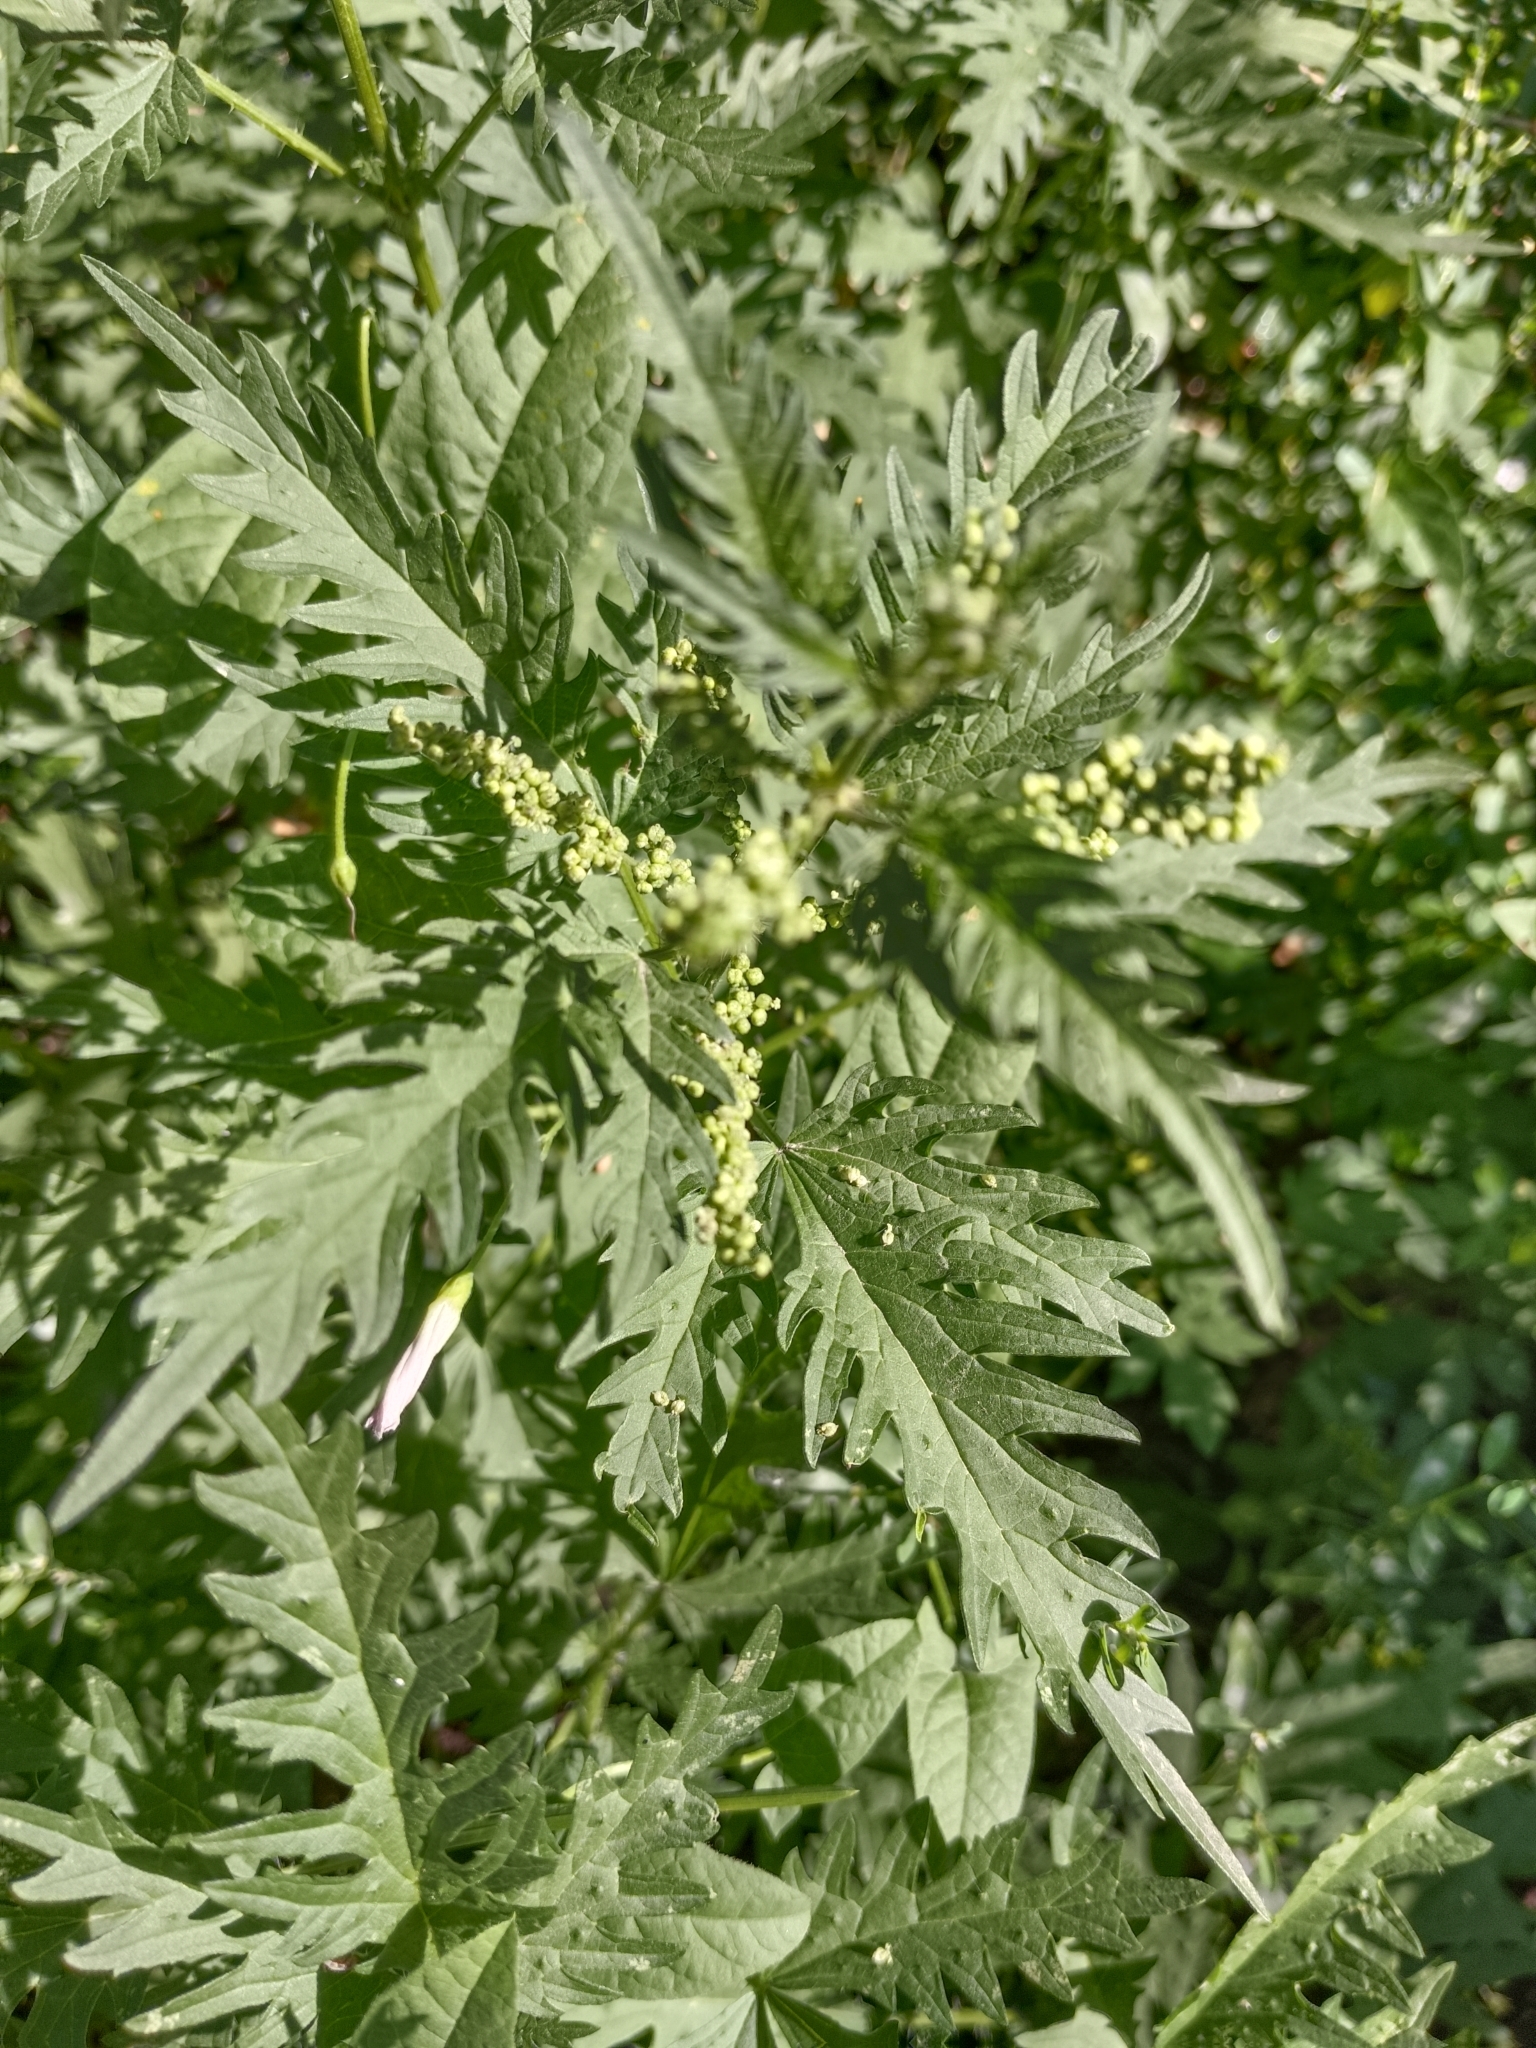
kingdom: Plantae
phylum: Tracheophyta
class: Magnoliopsida
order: Rosales
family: Urticaceae
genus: Urtica
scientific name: Urtica cannabina
